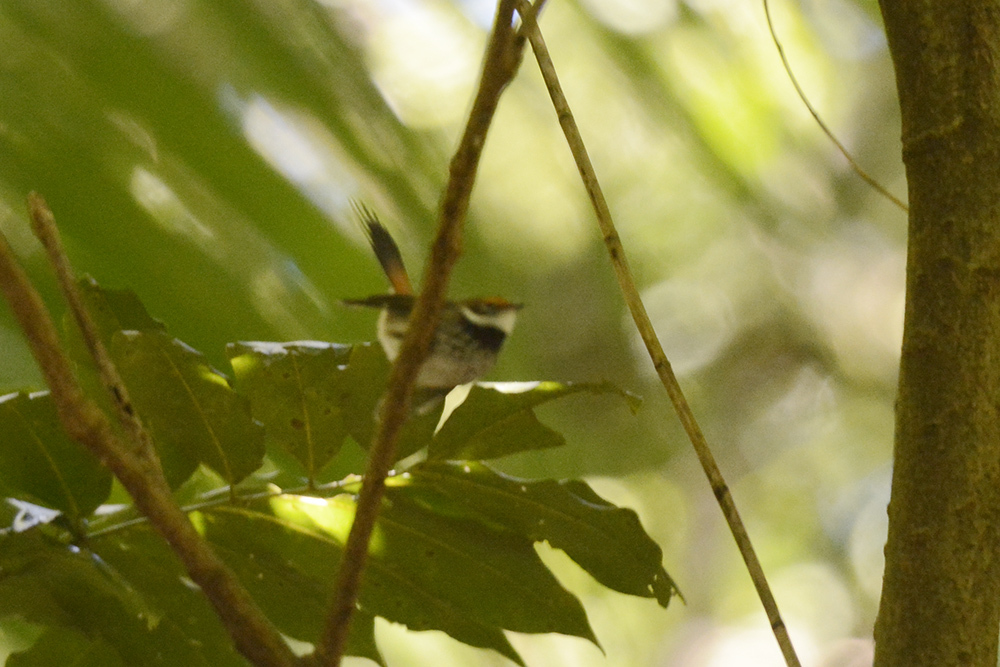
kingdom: Animalia
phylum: Chordata
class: Aves
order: Passeriformes
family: Rhipiduridae
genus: Rhipidura
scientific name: Rhipidura rufifrons
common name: Rufous fantail
